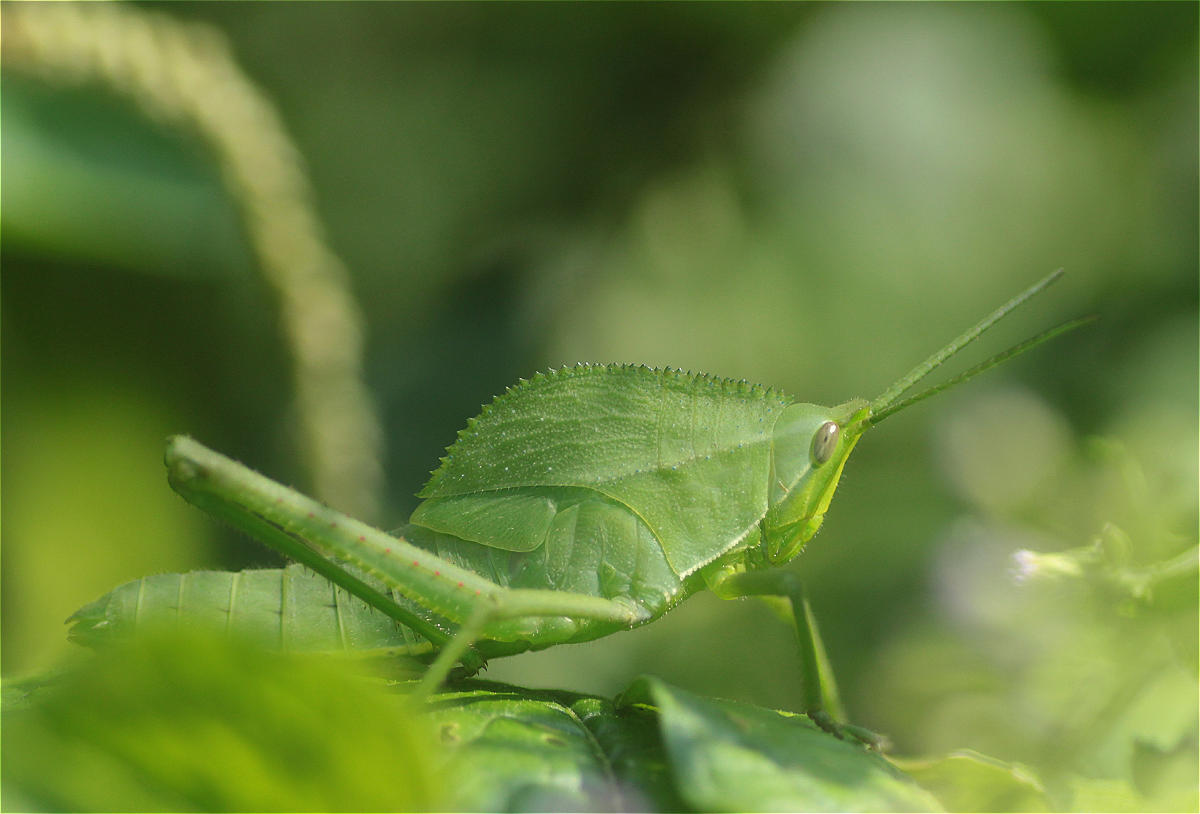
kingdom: Animalia
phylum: Arthropoda
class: Insecta
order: Orthoptera
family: Romaleidae
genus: Prionolopha
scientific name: Prionolopha serrata
